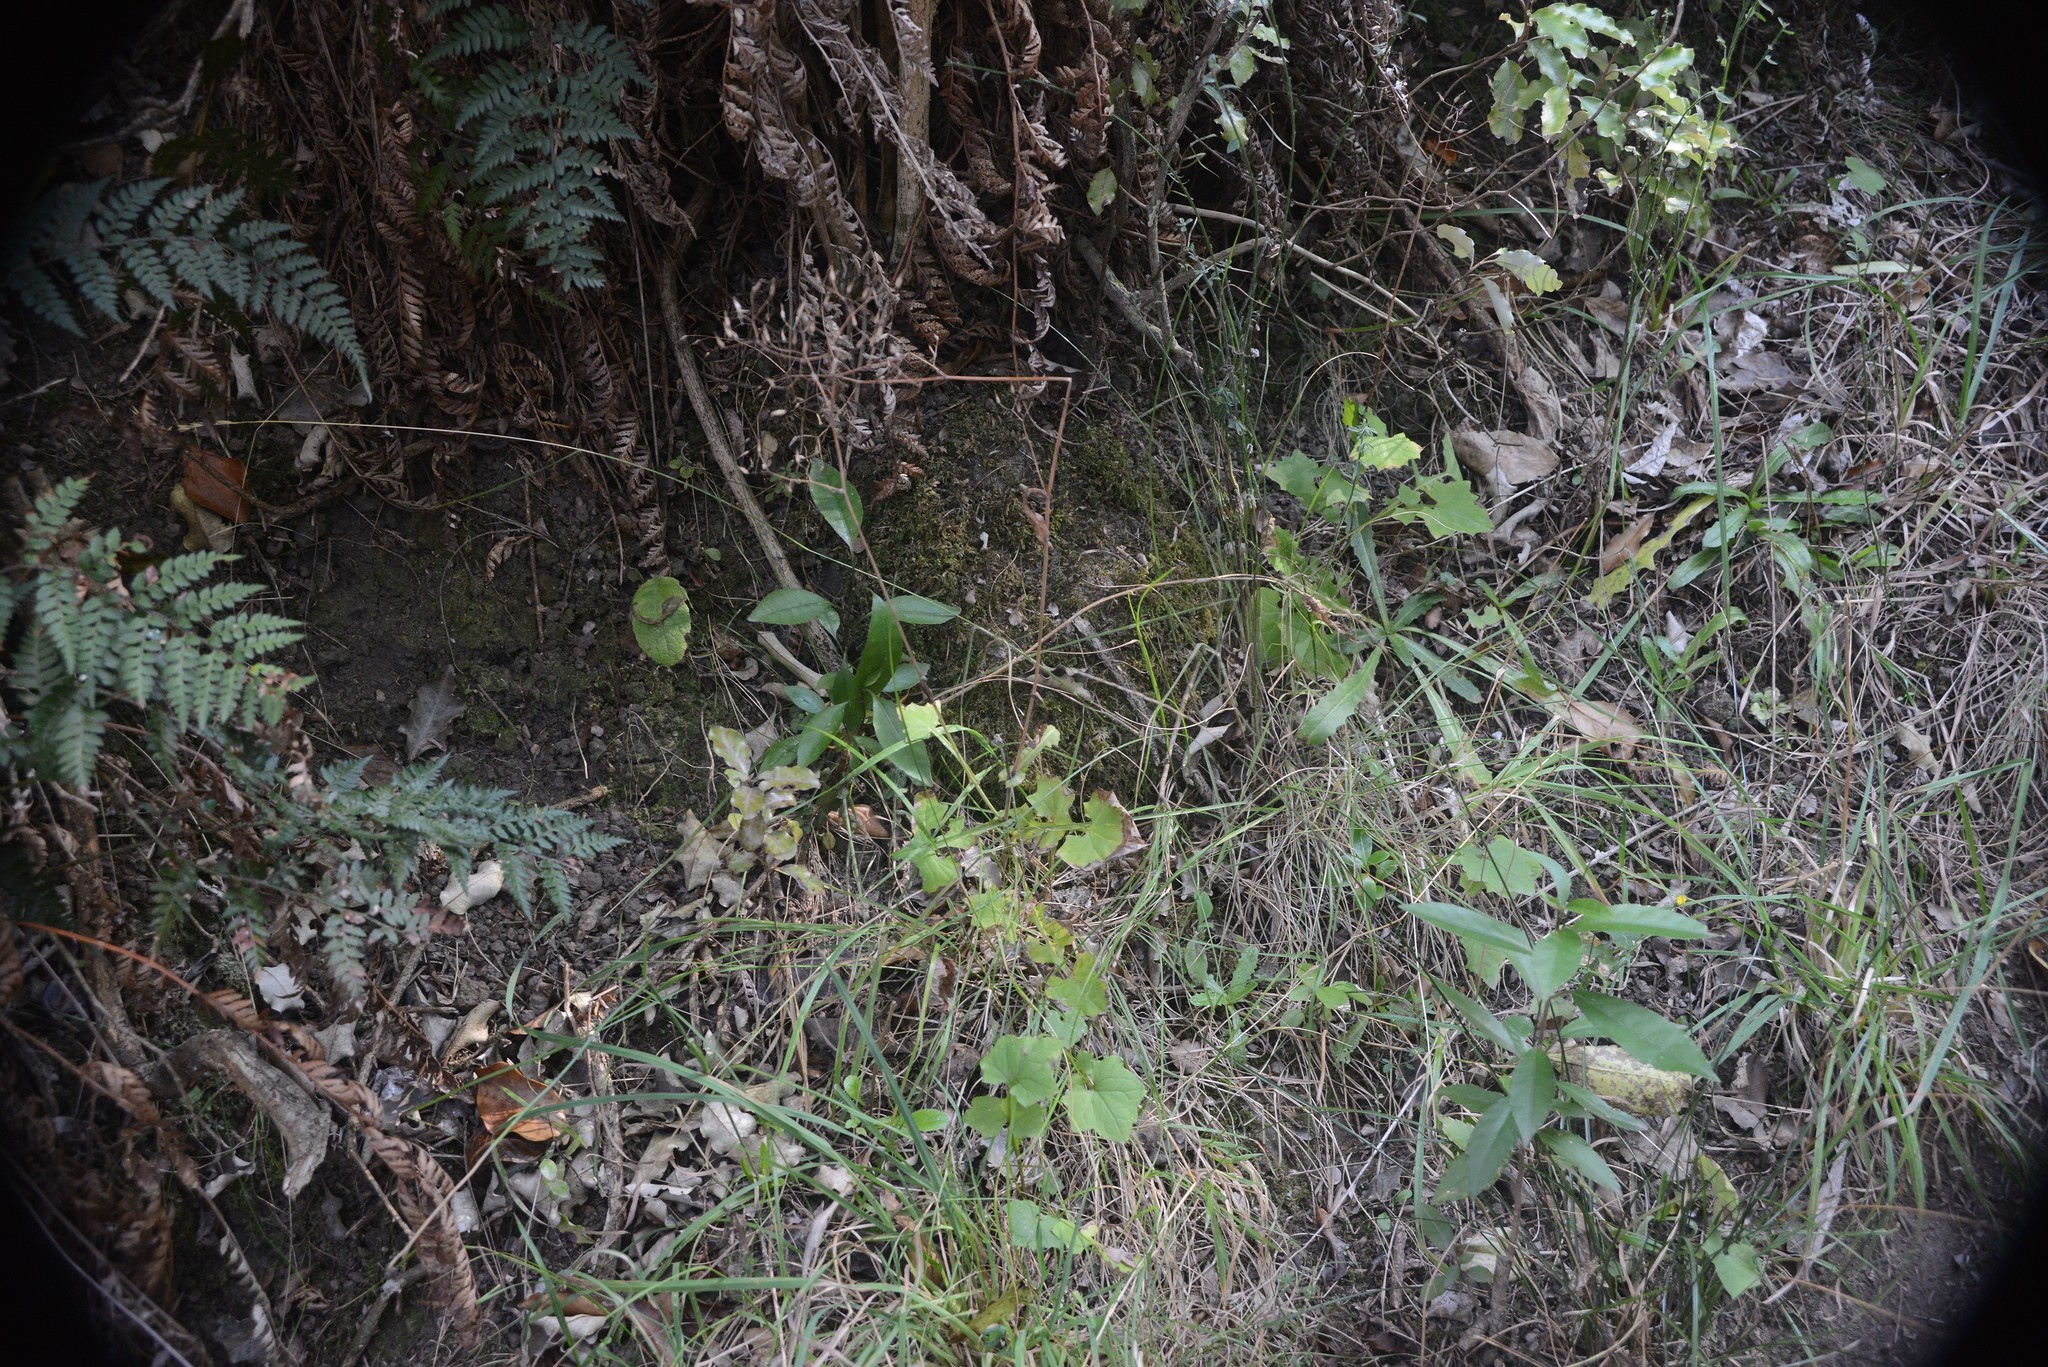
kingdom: Plantae
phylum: Tracheophyta
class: Magnoliopsida
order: Asterales
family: Asteraceae
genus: Mycelis
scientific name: Mycelis muralis
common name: Wall lettuce
